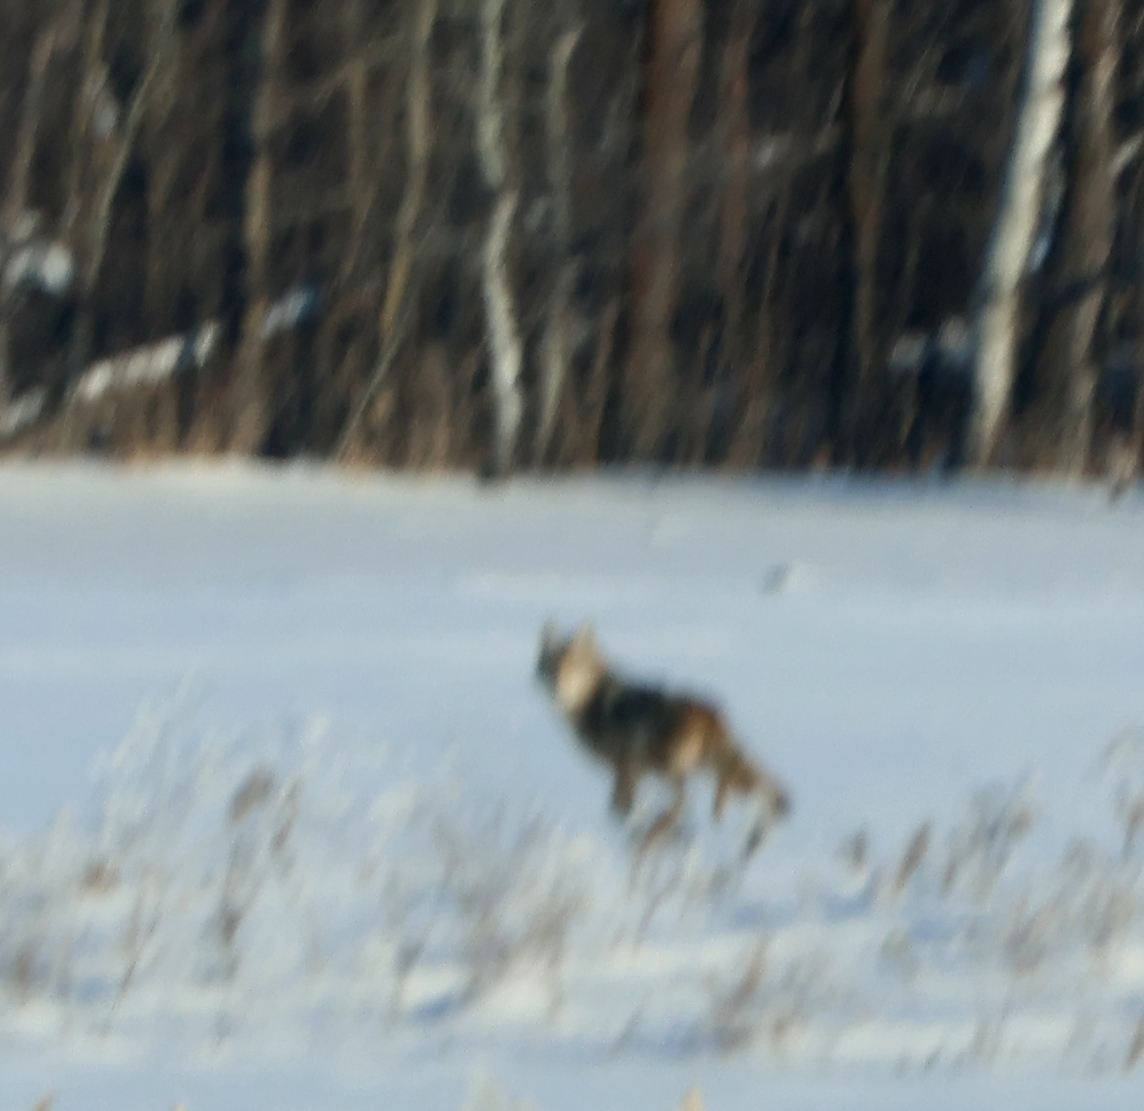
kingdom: Animalia
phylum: Chordata
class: Mammalia
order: Carnivora
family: Canidae
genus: Canis
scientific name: Canis latrans
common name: Coyote
